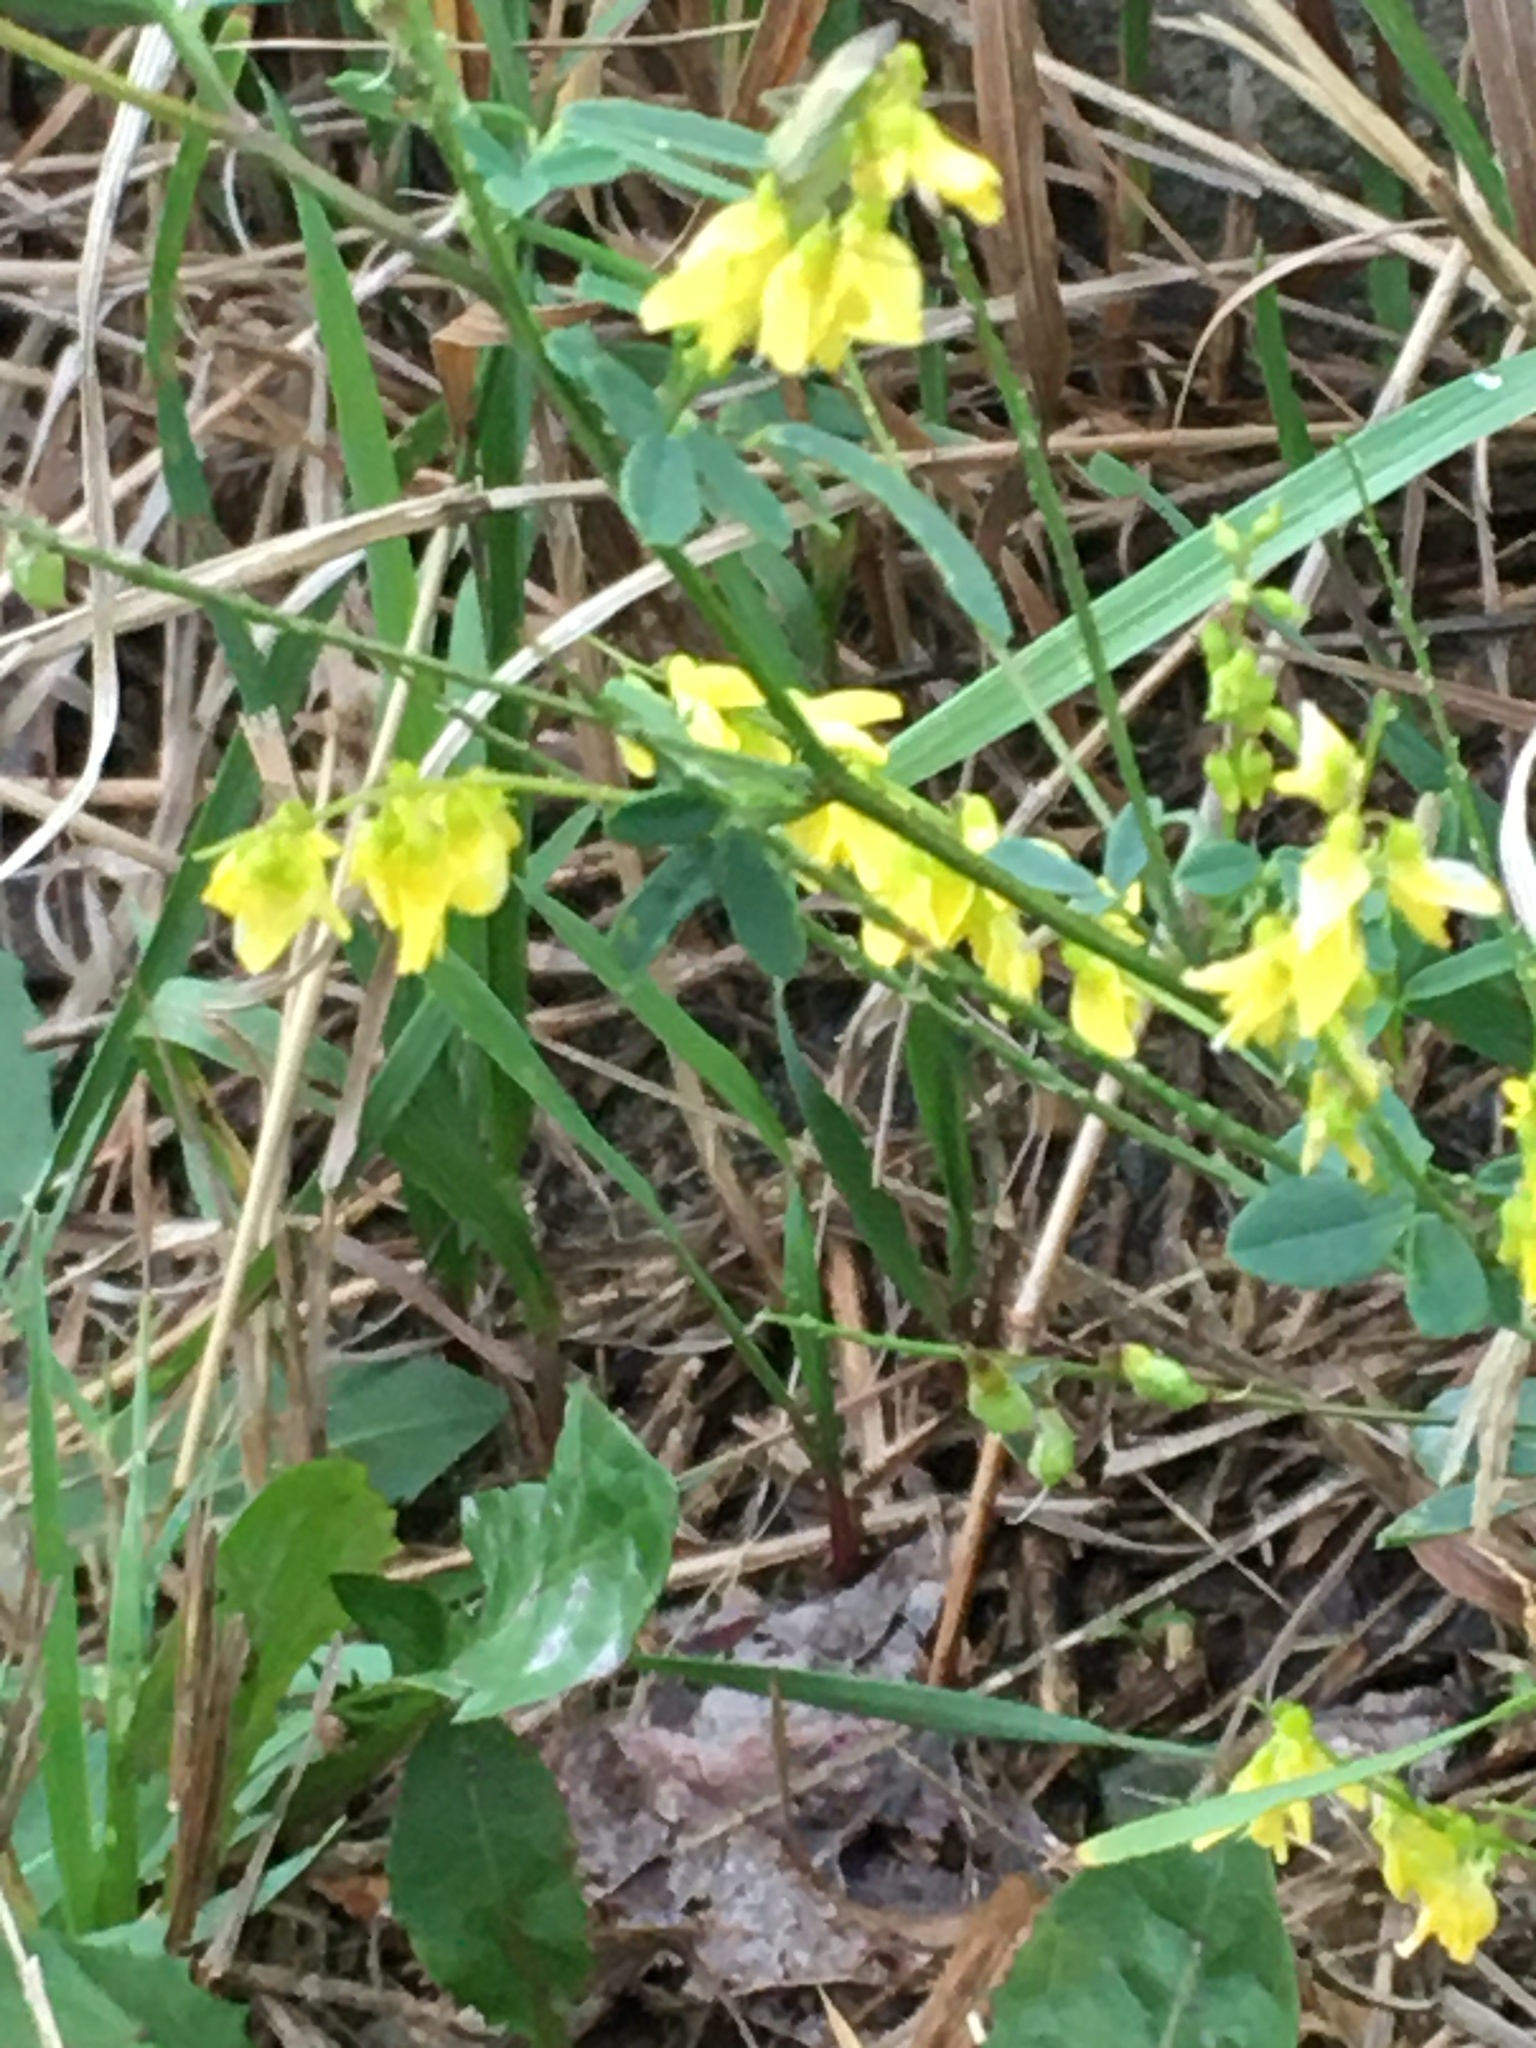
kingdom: Plantae
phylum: Tracheophyta
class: Magnoliopsida
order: Fabales
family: Fabaceae
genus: Melilotus
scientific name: Melilotus officinalis
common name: Sweetclover
